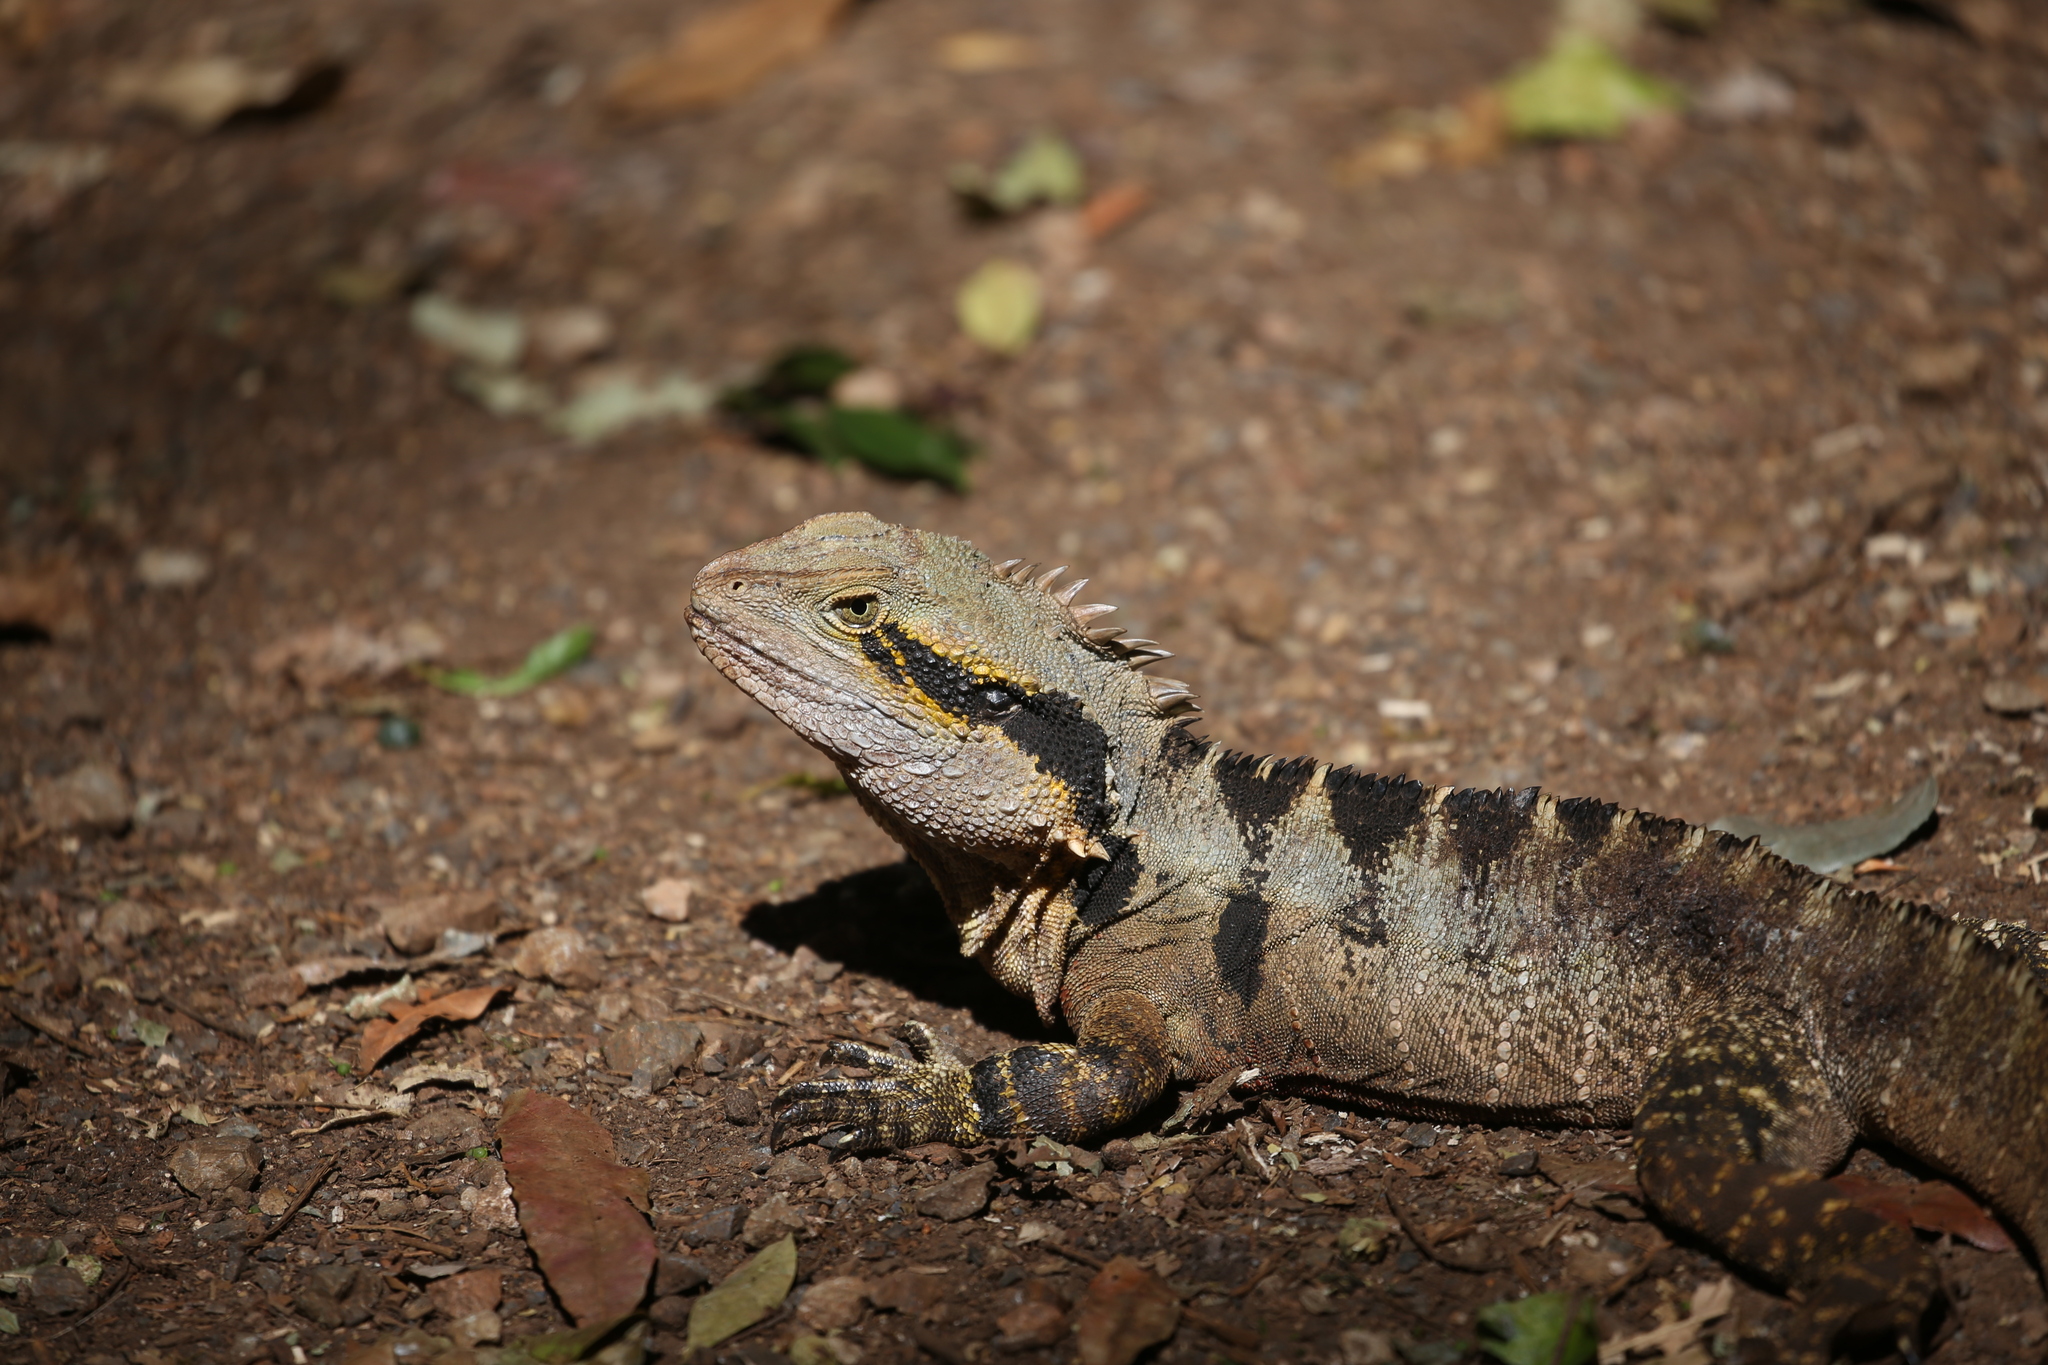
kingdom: Animalia
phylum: Chordata
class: Squamata
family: Agamidae
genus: Intellagama
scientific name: Intellagama lesueurii
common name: Eastern water dragon
